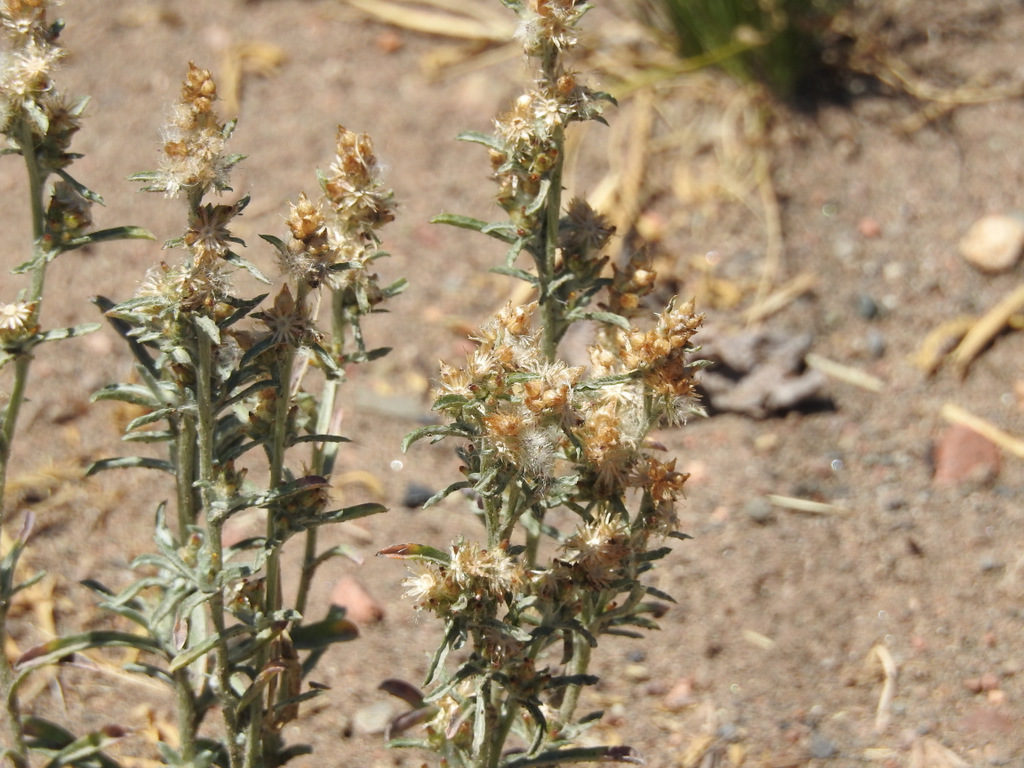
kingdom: Plantae
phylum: Tracheophyta
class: Magnoliopsida
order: Asterales
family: Asteraceae
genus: Pseudognaphalium
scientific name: Pseudognaphalium gaudichaudianum
